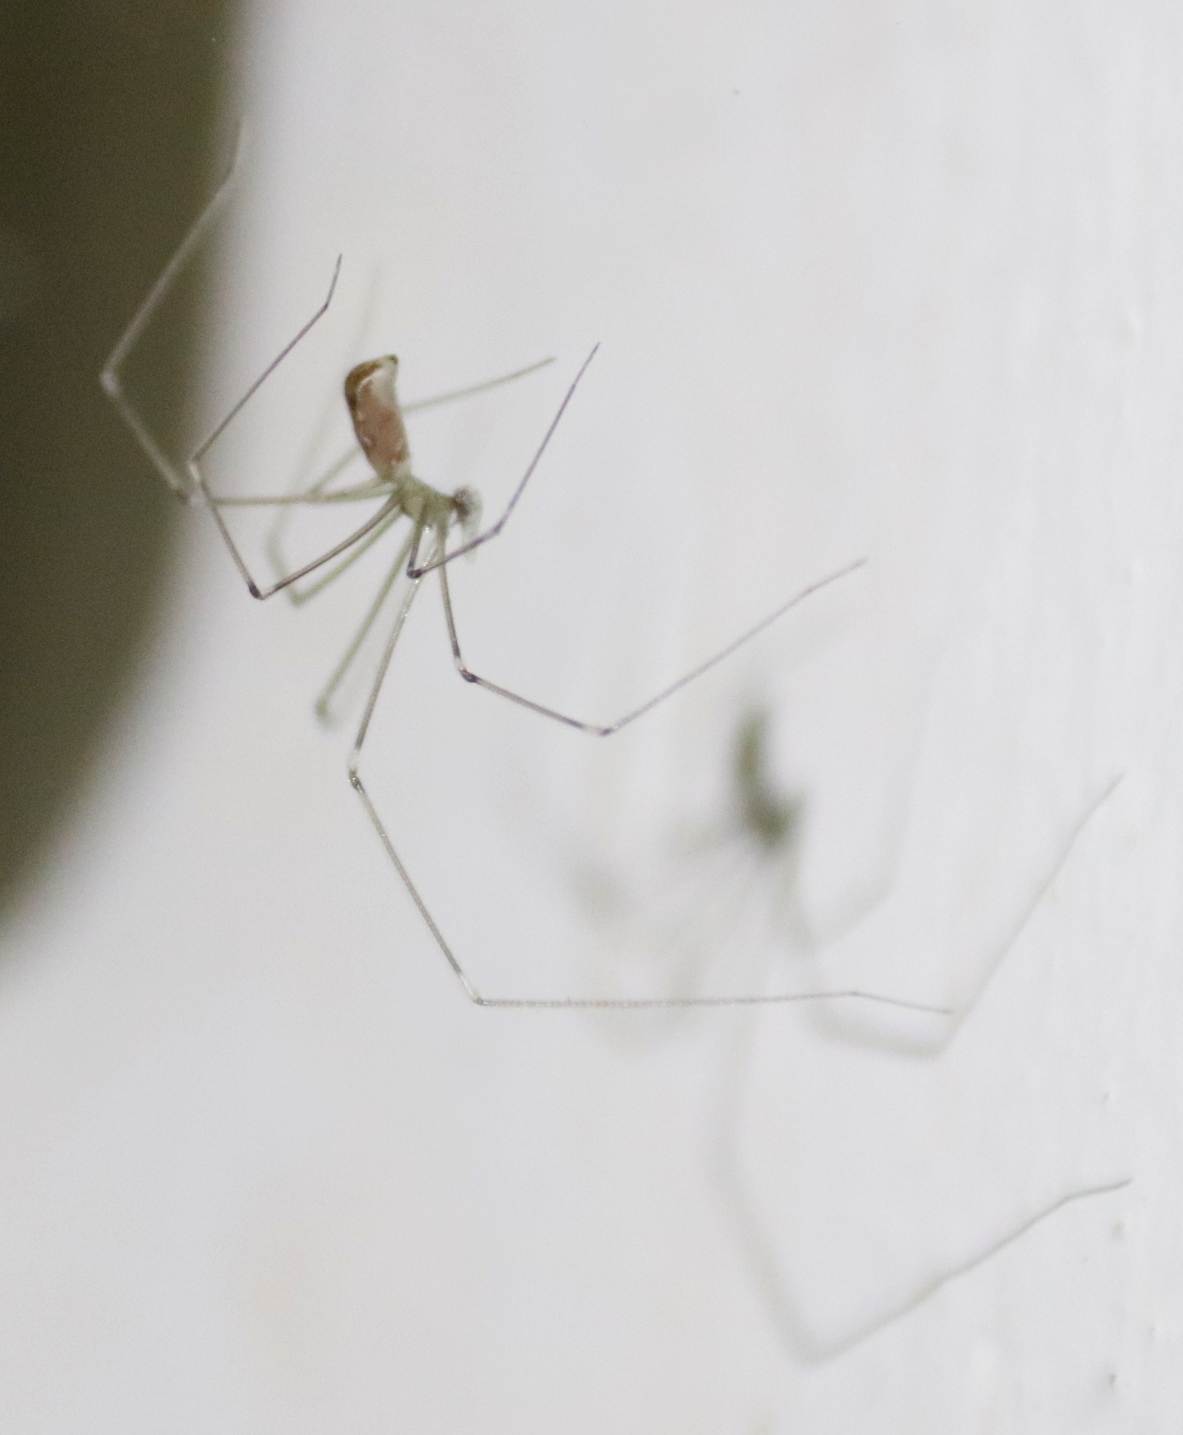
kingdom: Animalia
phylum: Arthropoda
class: Arachnida
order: Araneae
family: Pholcidae
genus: Pholcus
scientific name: Pholcus phalangioides
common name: Longbodied cellar spider
